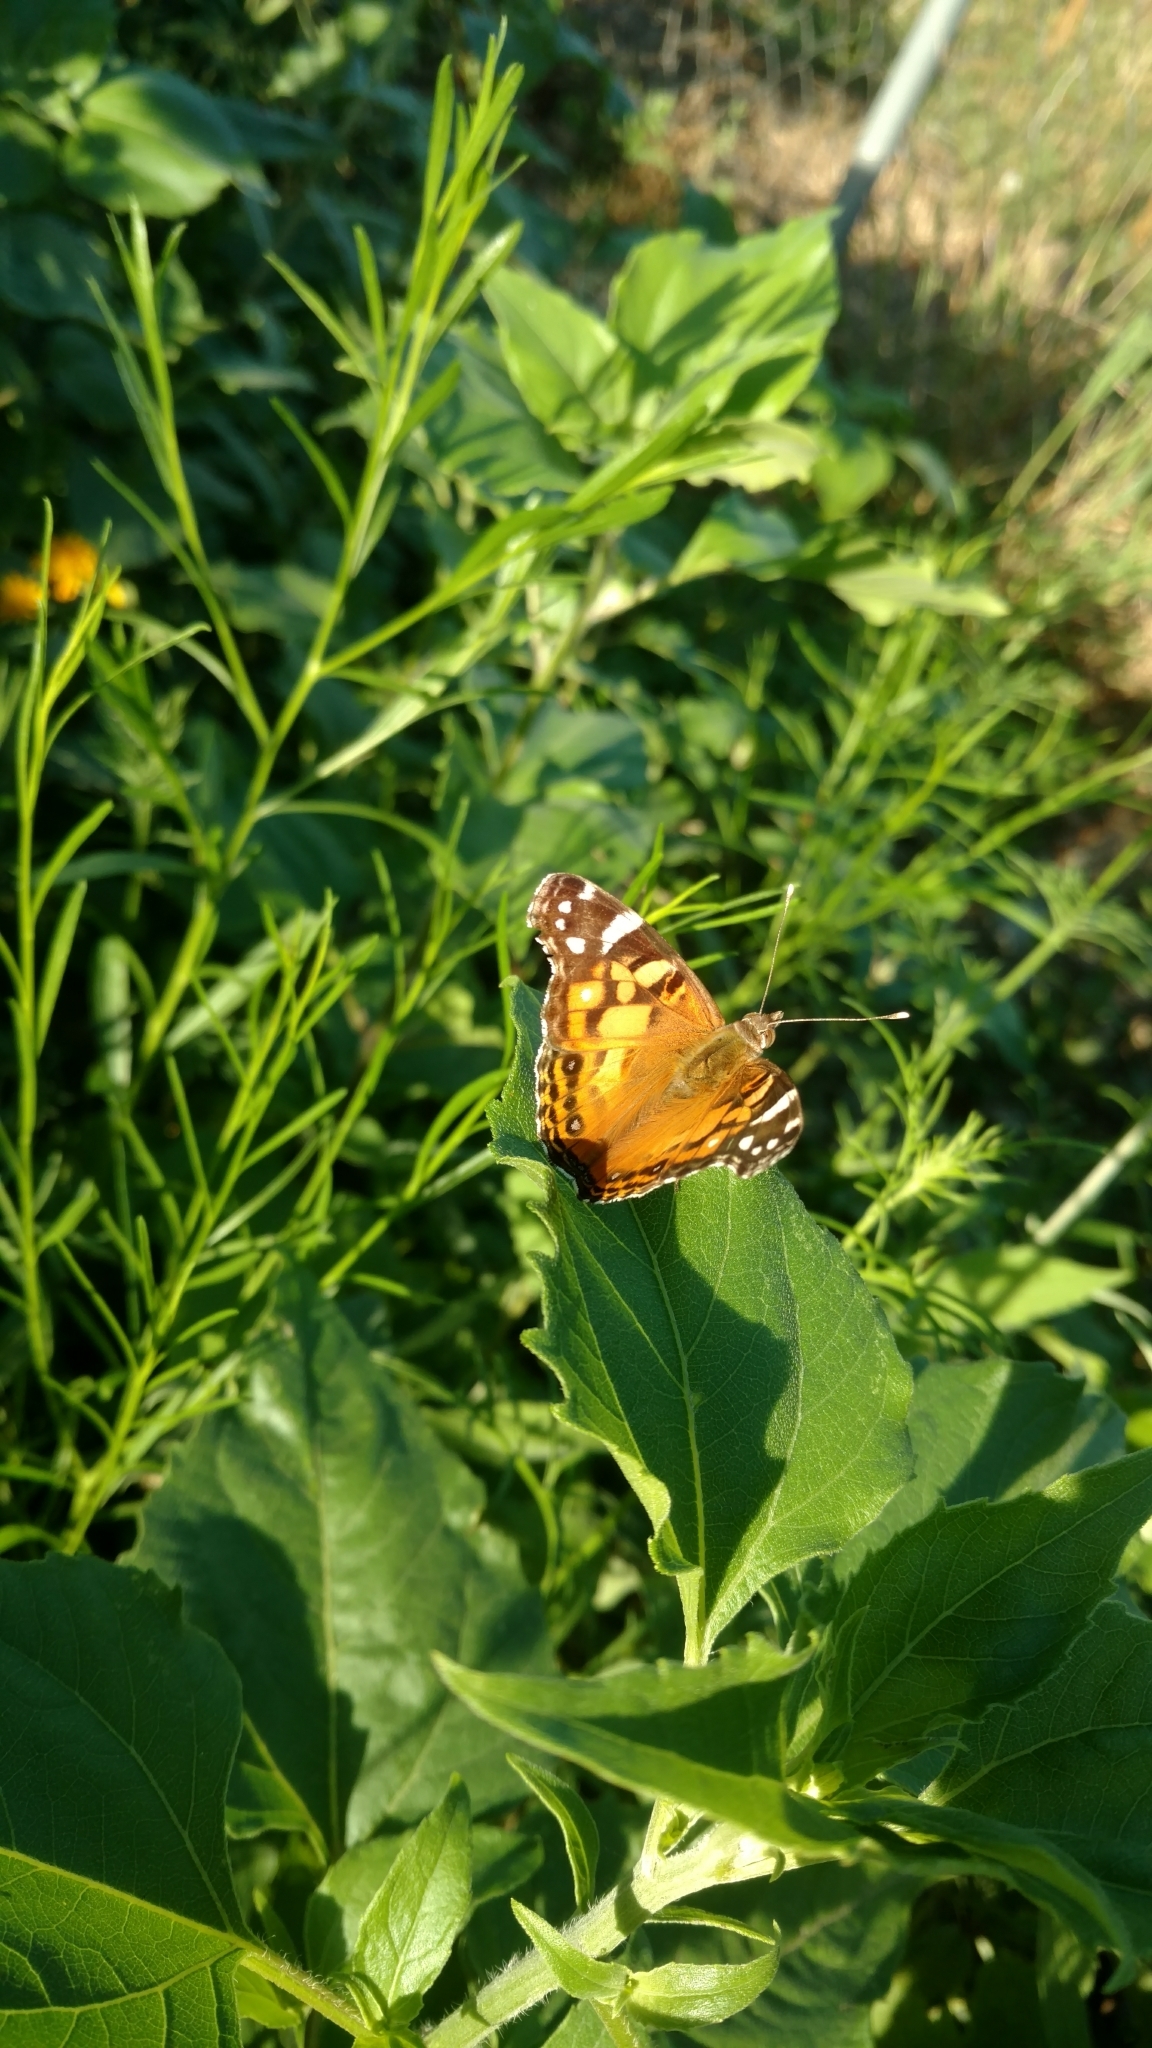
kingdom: Animalia
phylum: Arthropoda
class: Insecta
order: Lepidoptera
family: Nymphalidae
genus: Vanessa
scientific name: Vanessa virginiensis
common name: American lady
